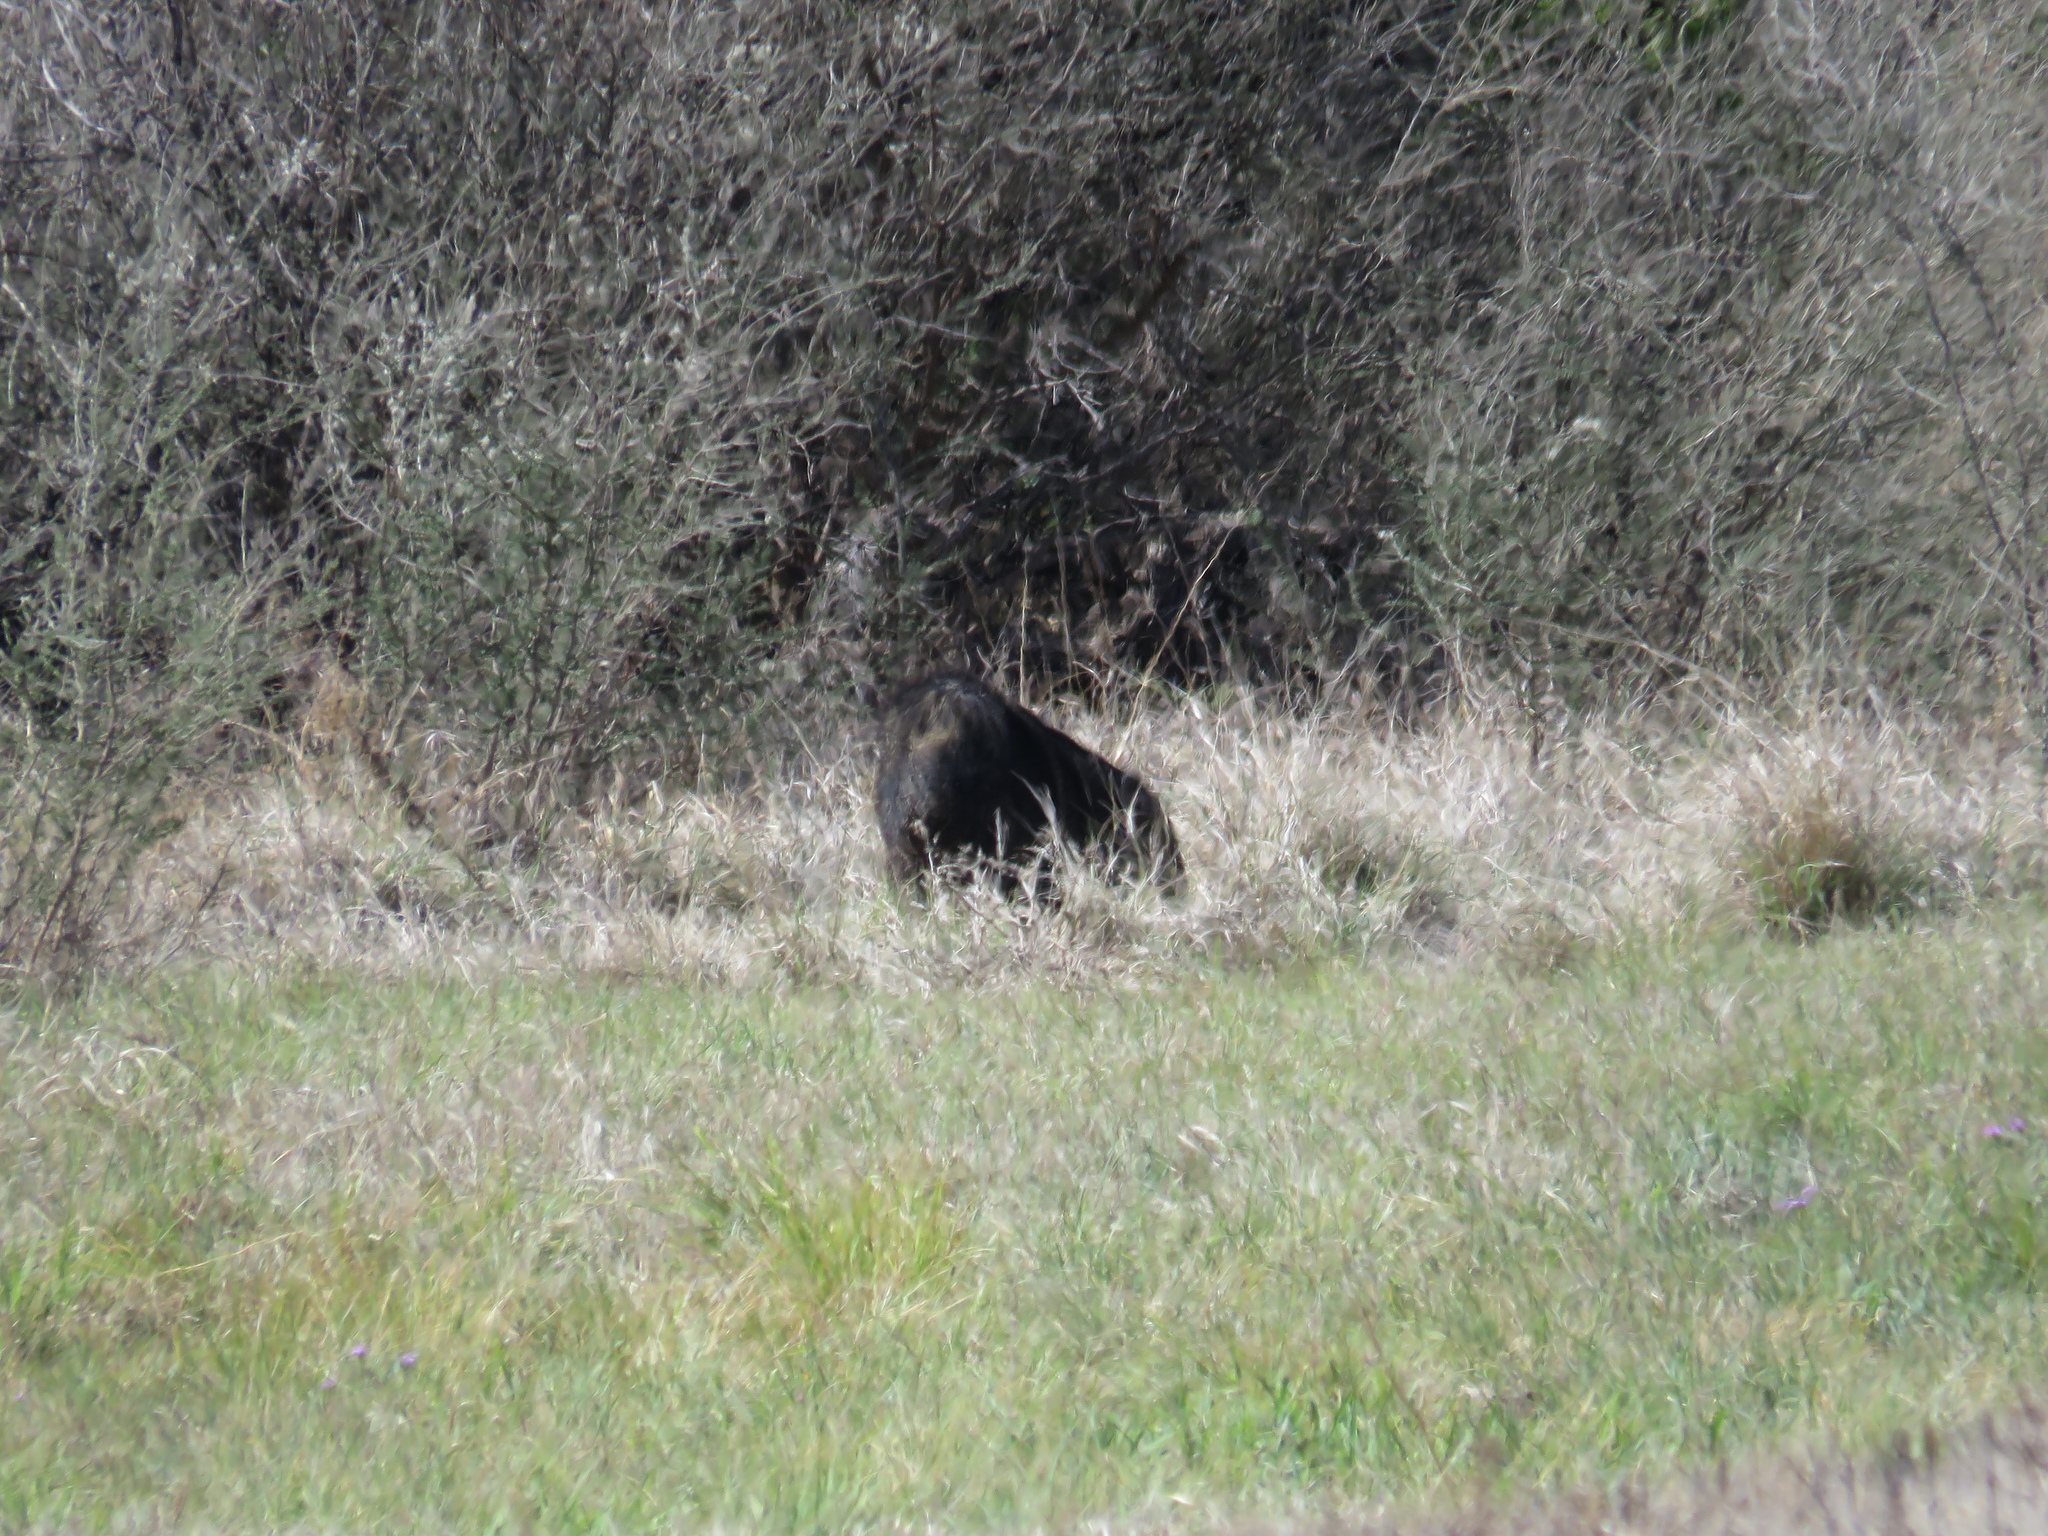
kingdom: Animalia
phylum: Chordata
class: Mammalia
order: Artiodactyla
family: Tayassuidae
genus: Pecari
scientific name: Pecari tajacu
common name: Collared peccary
